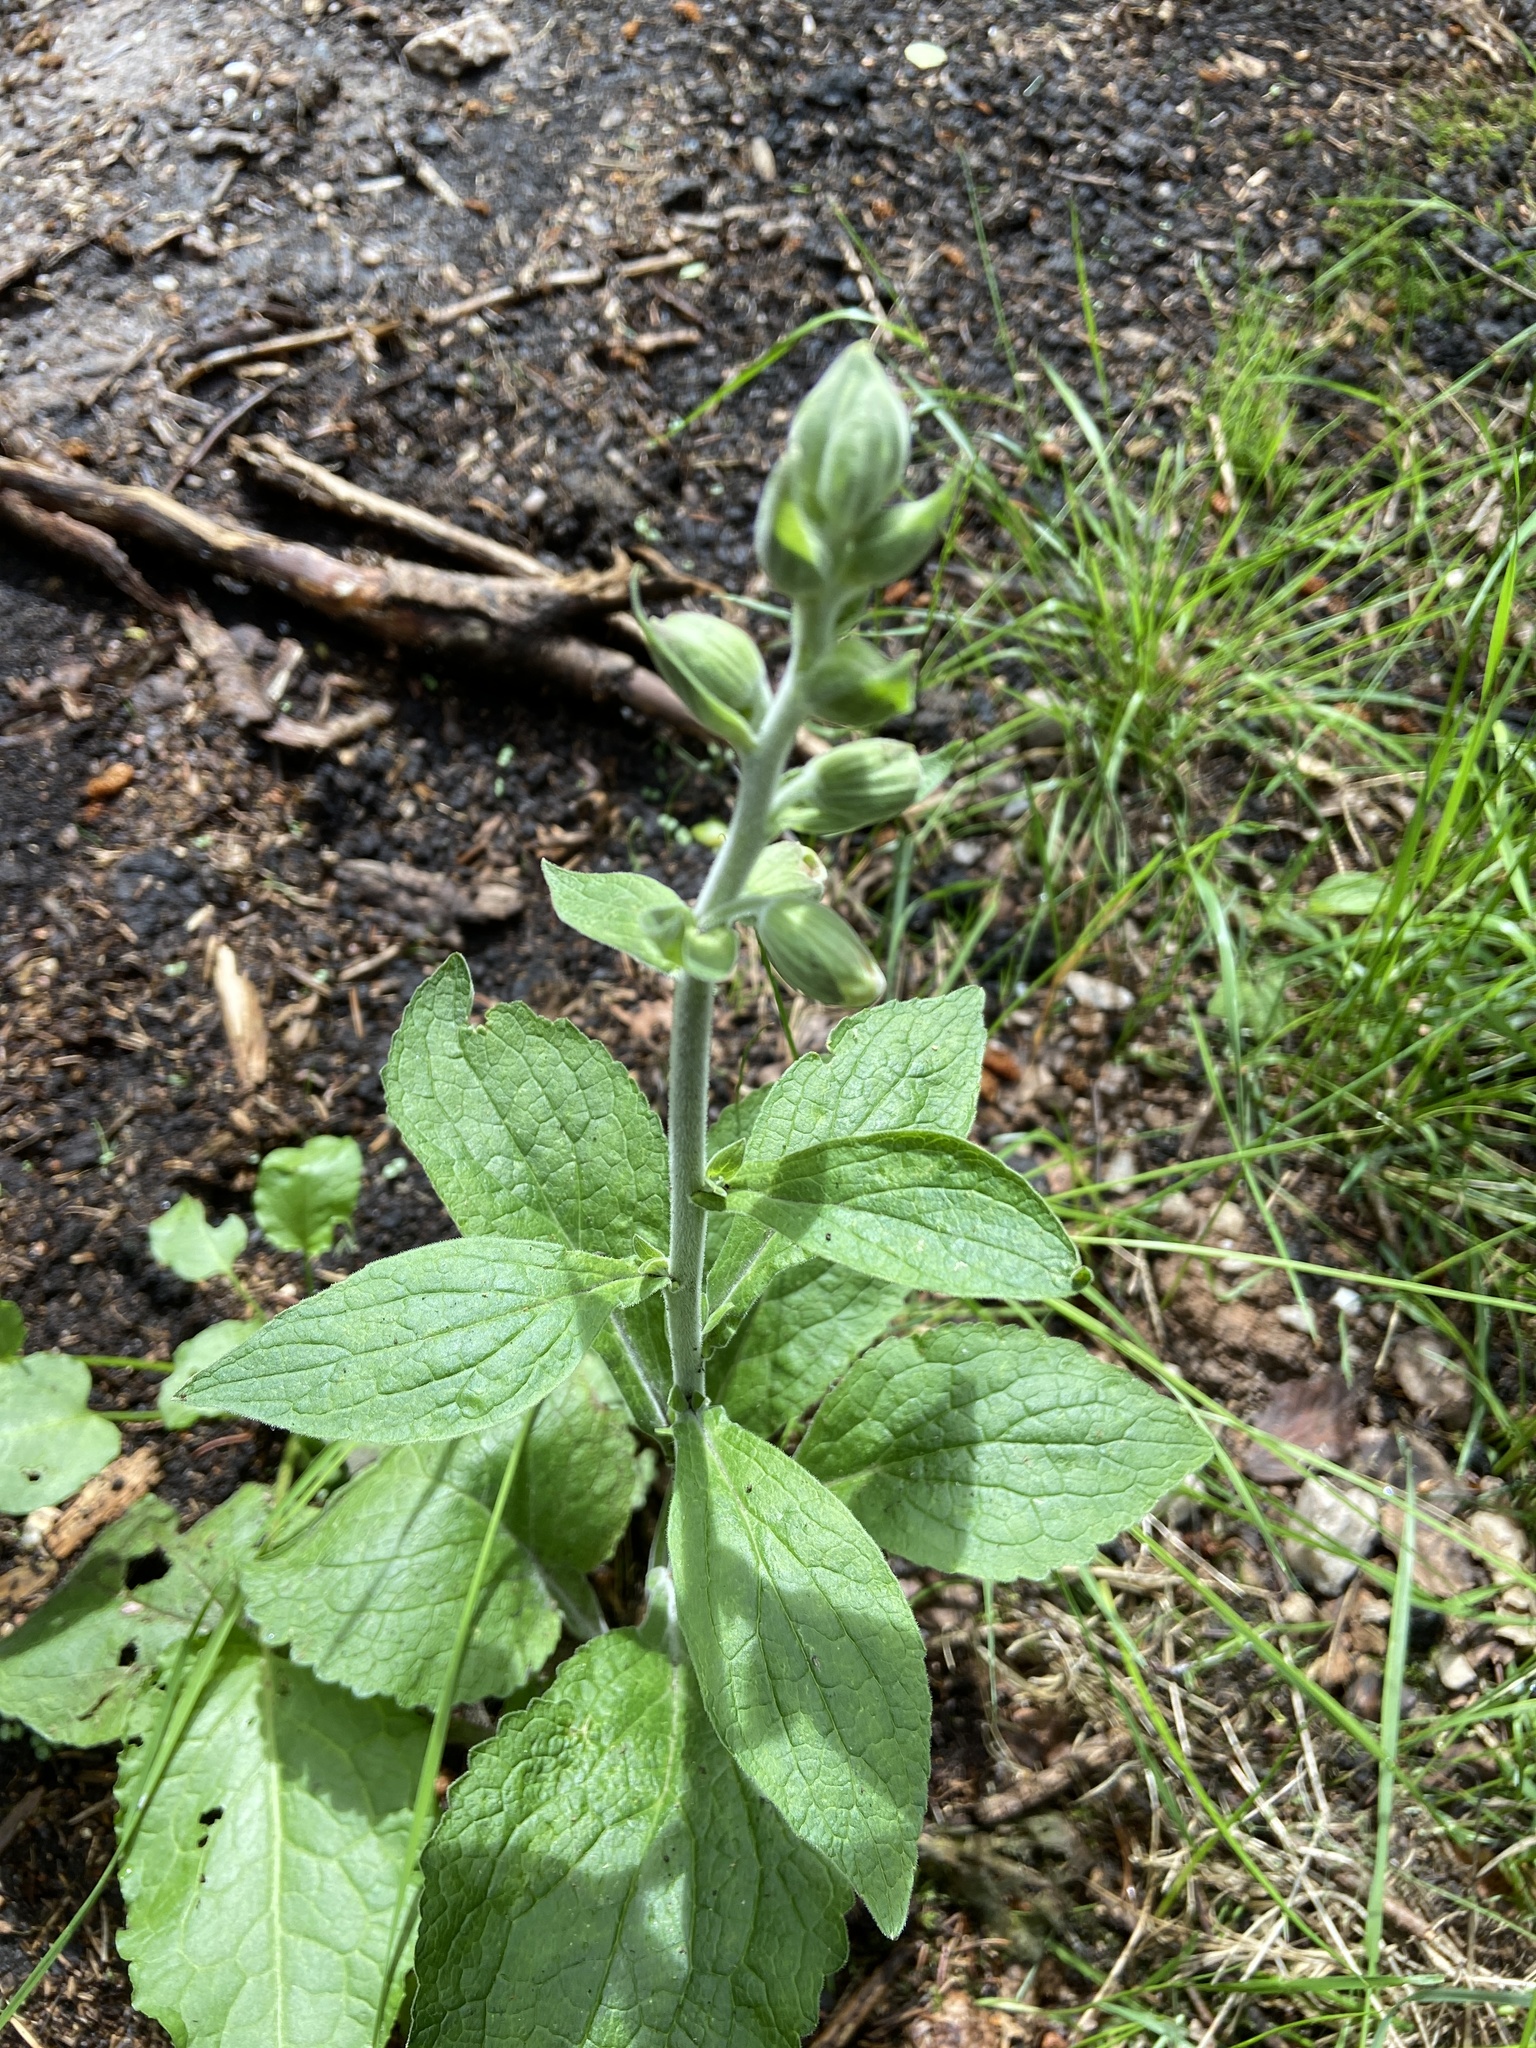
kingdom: Plantae
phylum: Tracheophyta
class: Magnoliopsida
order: Lamiales
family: Plantaginaceae
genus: Digitalis
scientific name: Digitalis purpurea
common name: Foxglove
